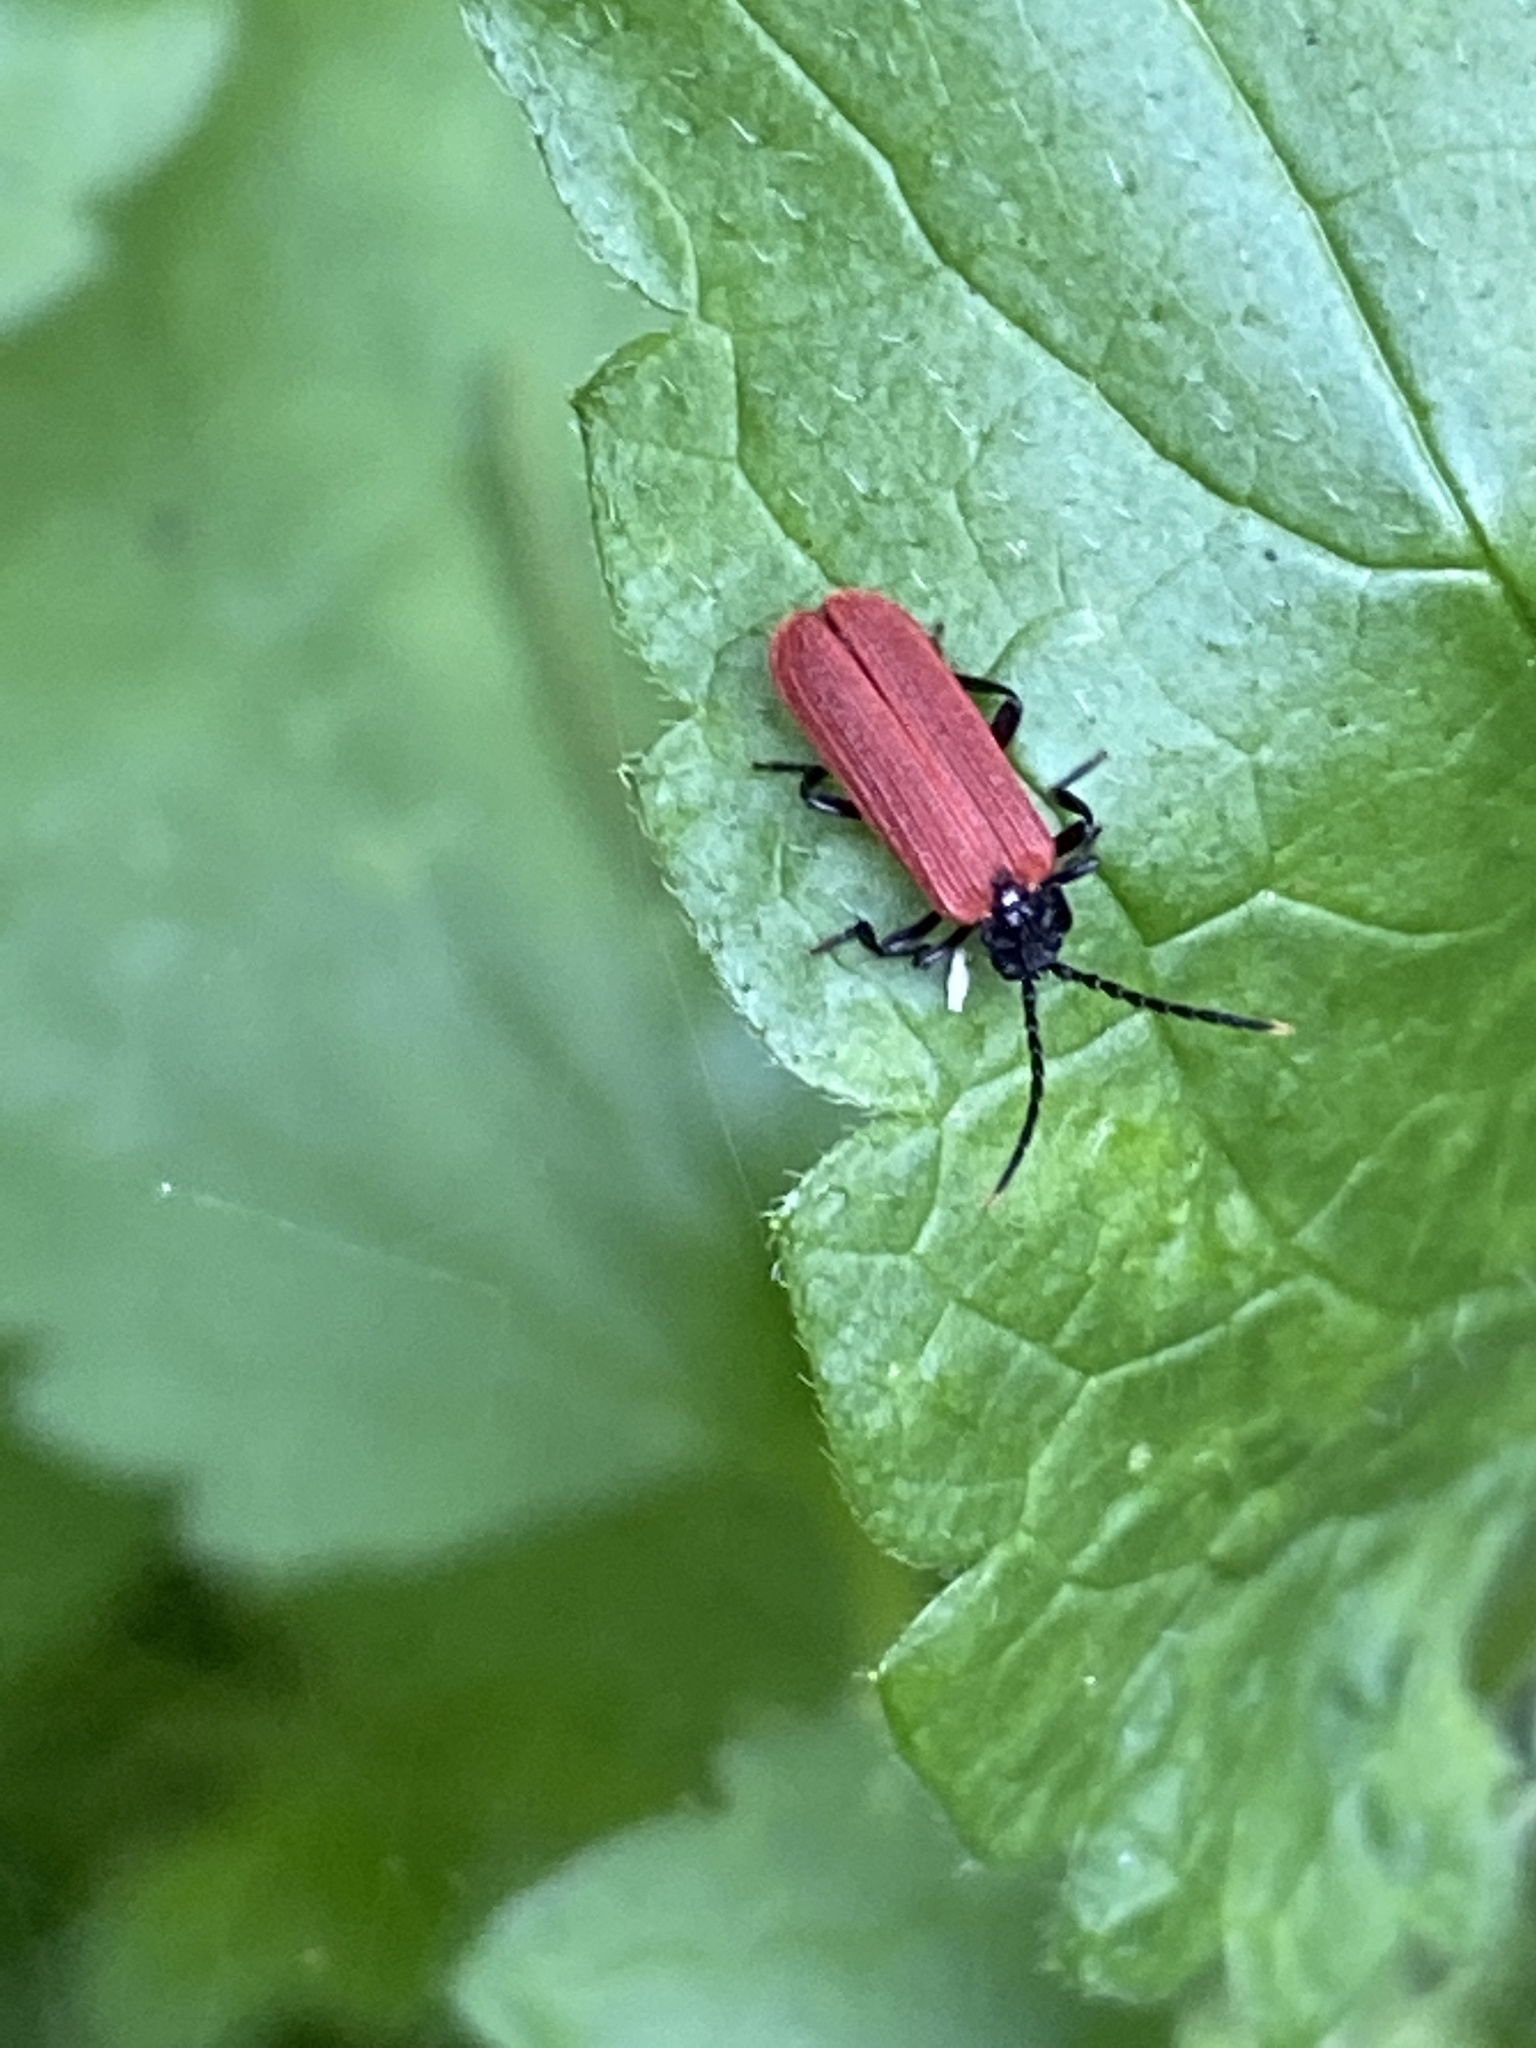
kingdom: Animalia
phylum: Arthropoda
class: Insecta
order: Coleoptera
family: Lycidae
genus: Platycis
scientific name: Platycis minutus
